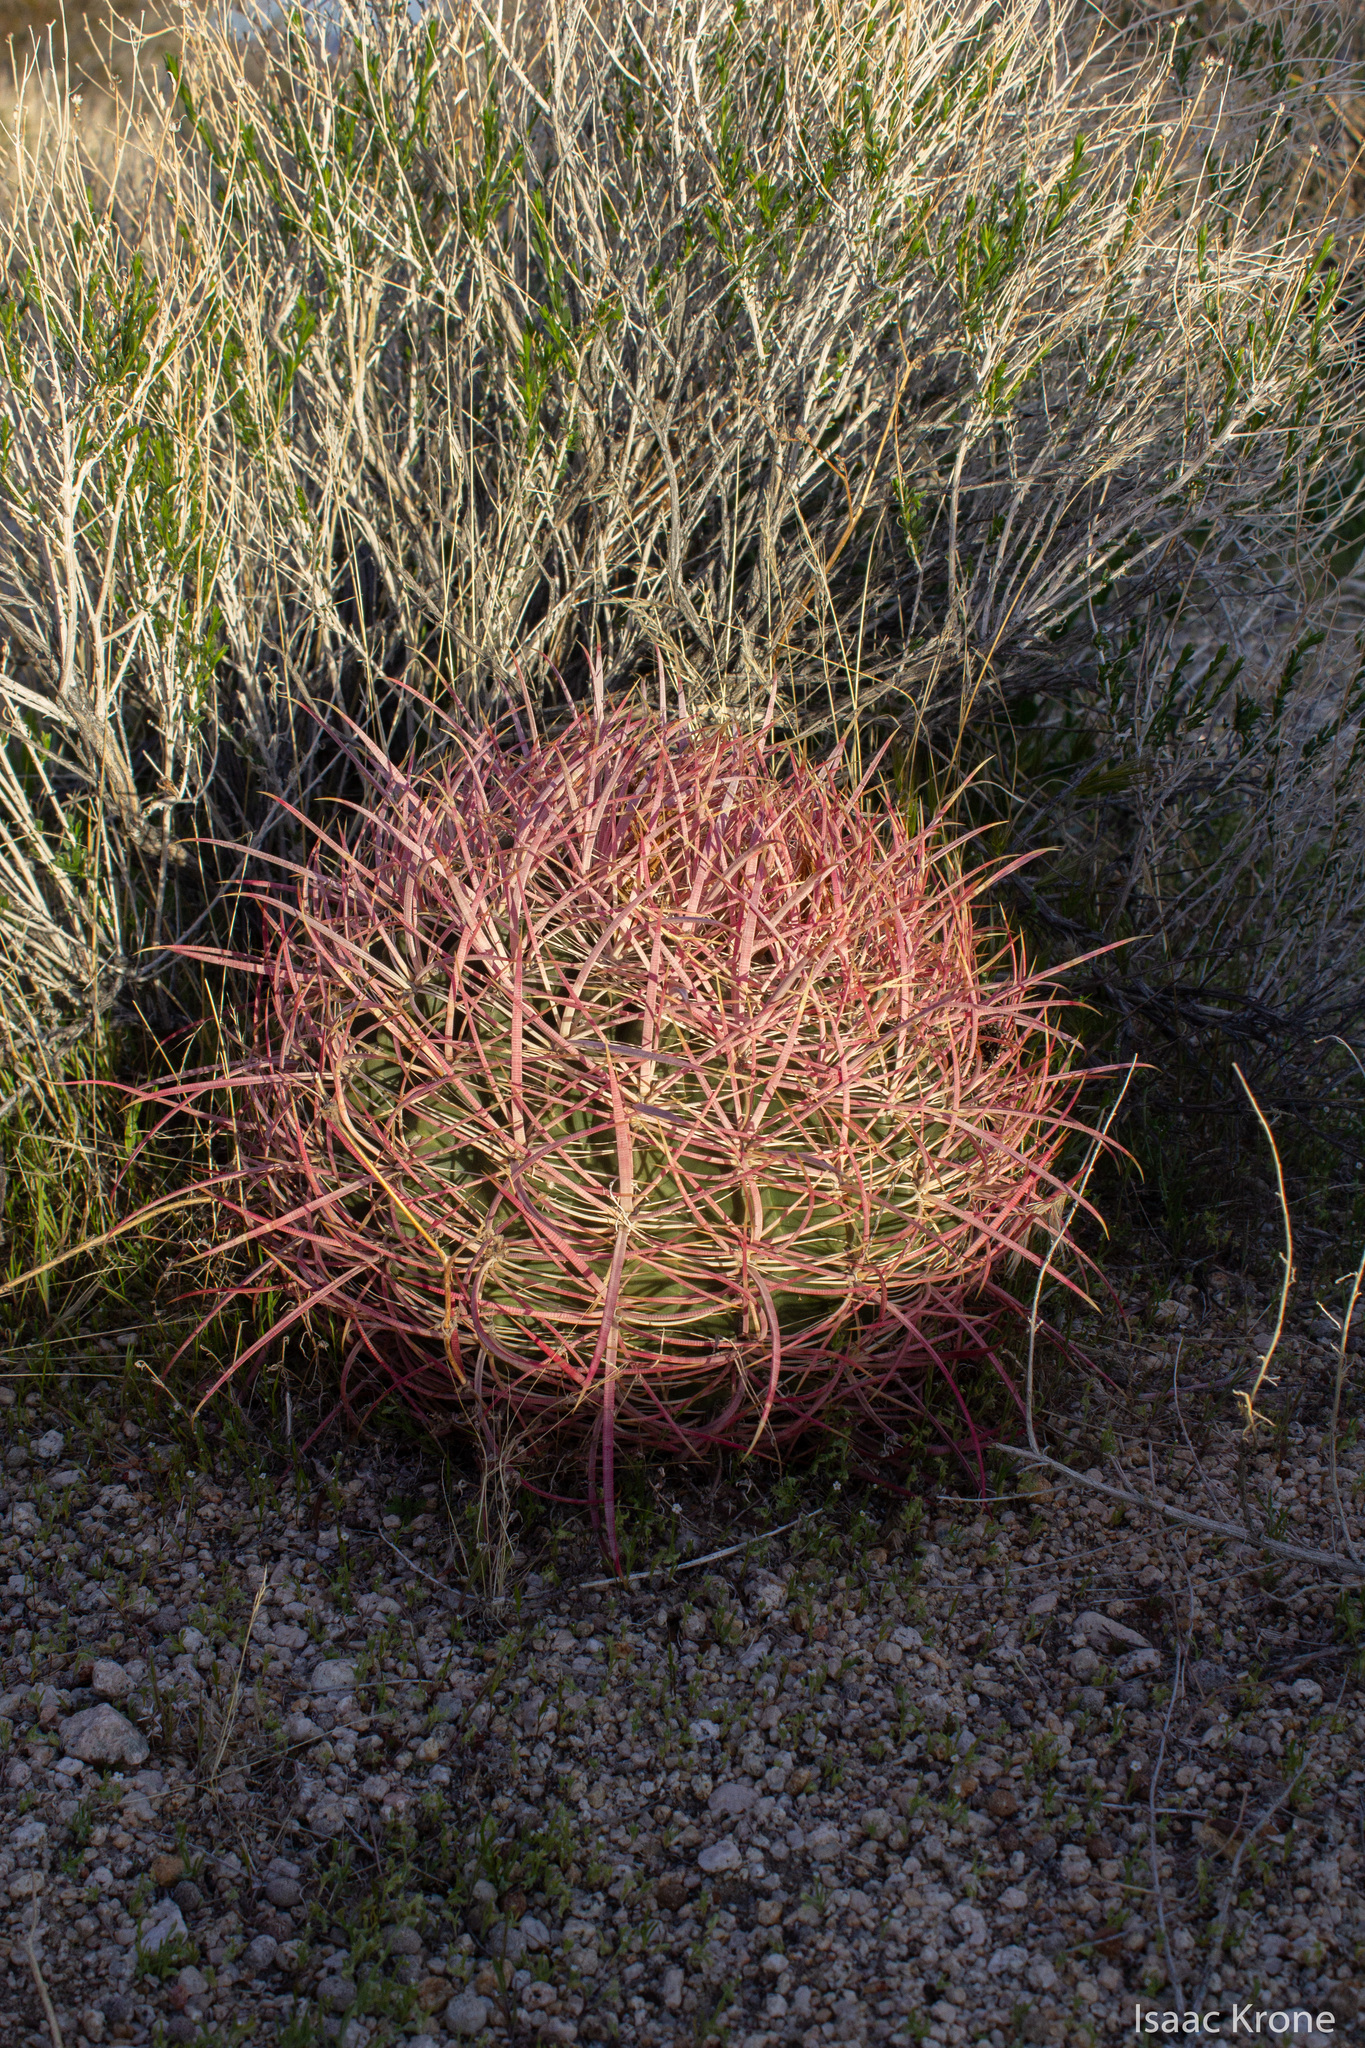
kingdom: Plantae
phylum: Tracheophyta
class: Magnoliopsida
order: Caryophyllales
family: Cactaceae
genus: Ferocactus
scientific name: Ferocactus cylindraceus
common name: California barrel cactus
